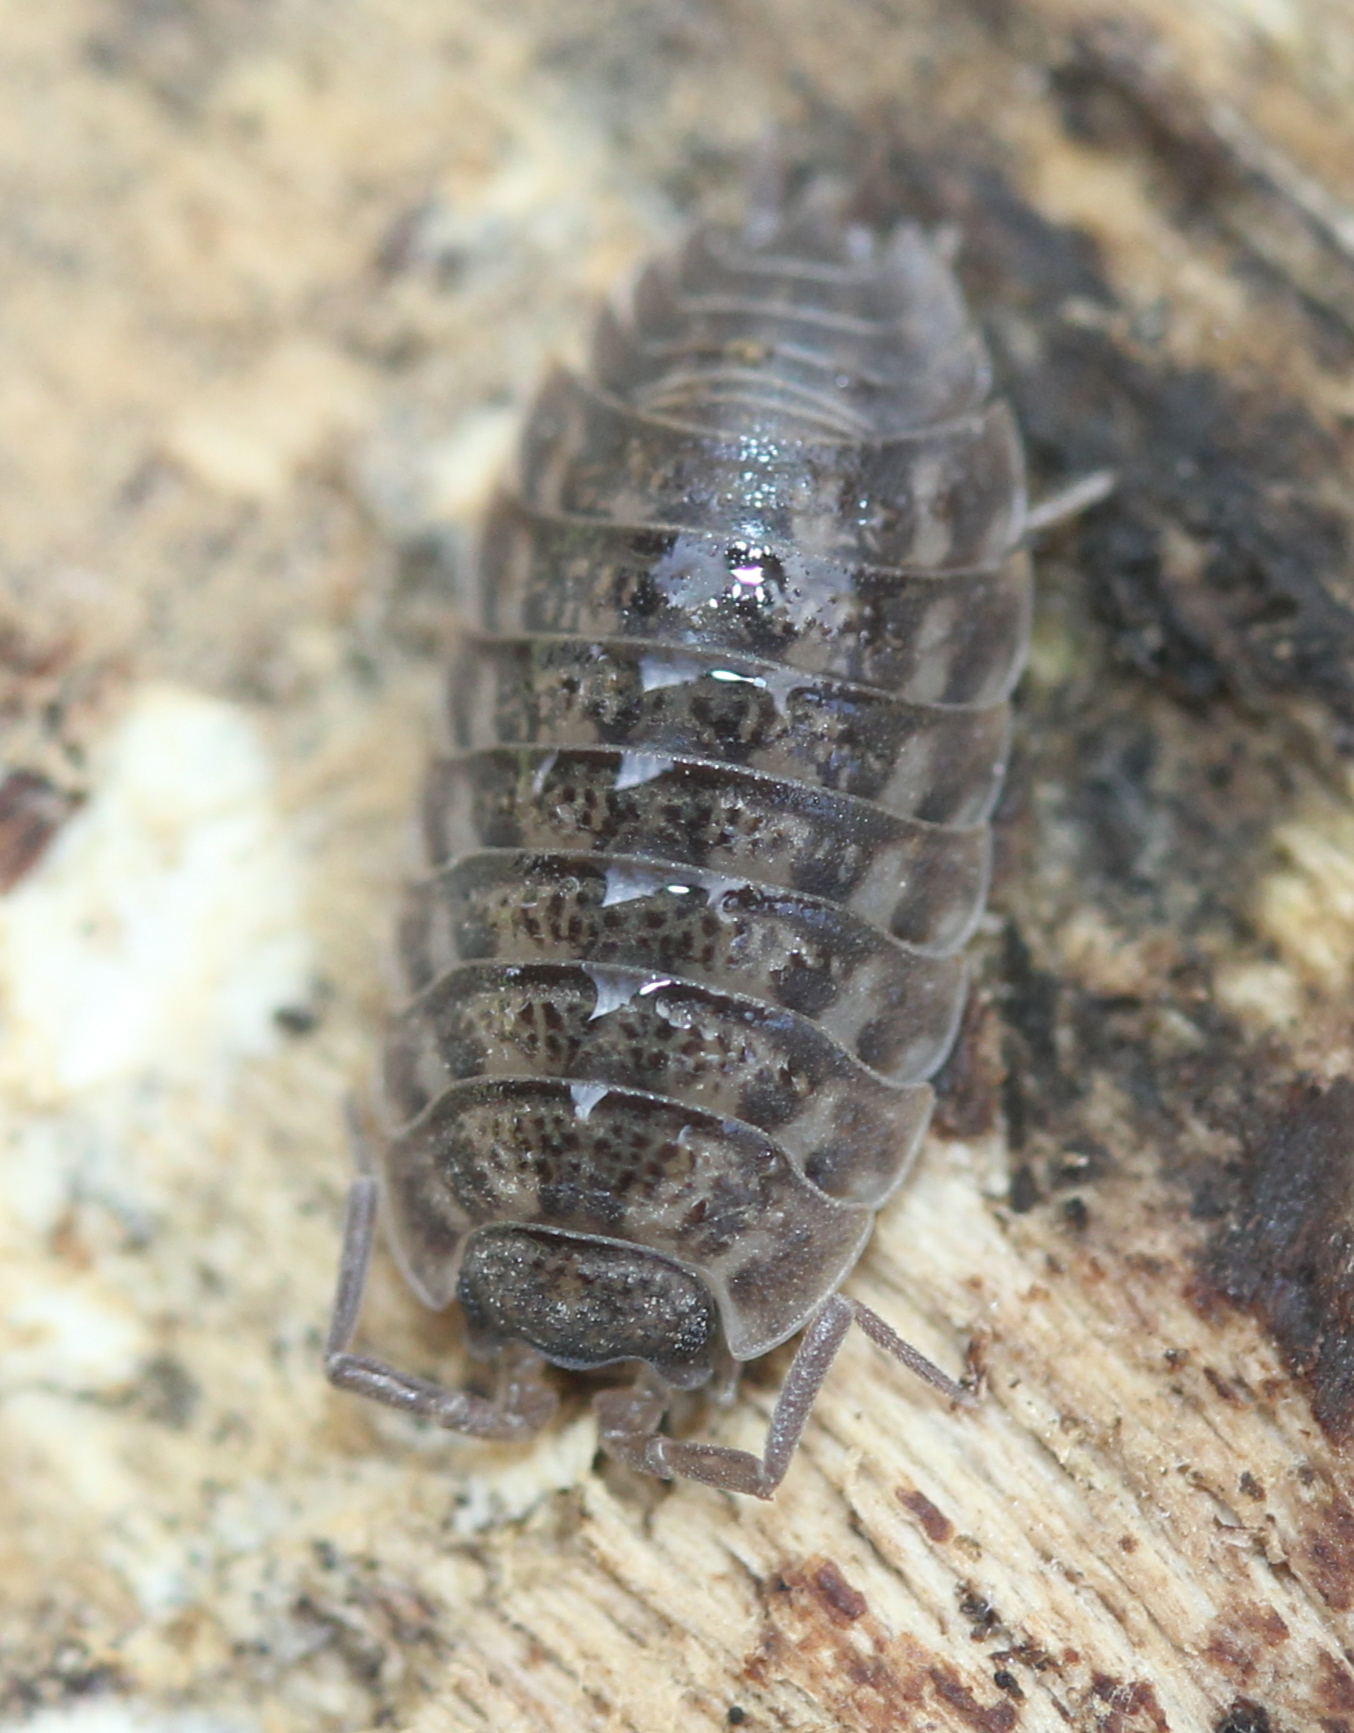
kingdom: Animalia
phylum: Arthropoda
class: Malacostraca
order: Isopoda
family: Trachelipodidae
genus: Trachelipus
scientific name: Trachelipus rathkii
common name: Isopod
